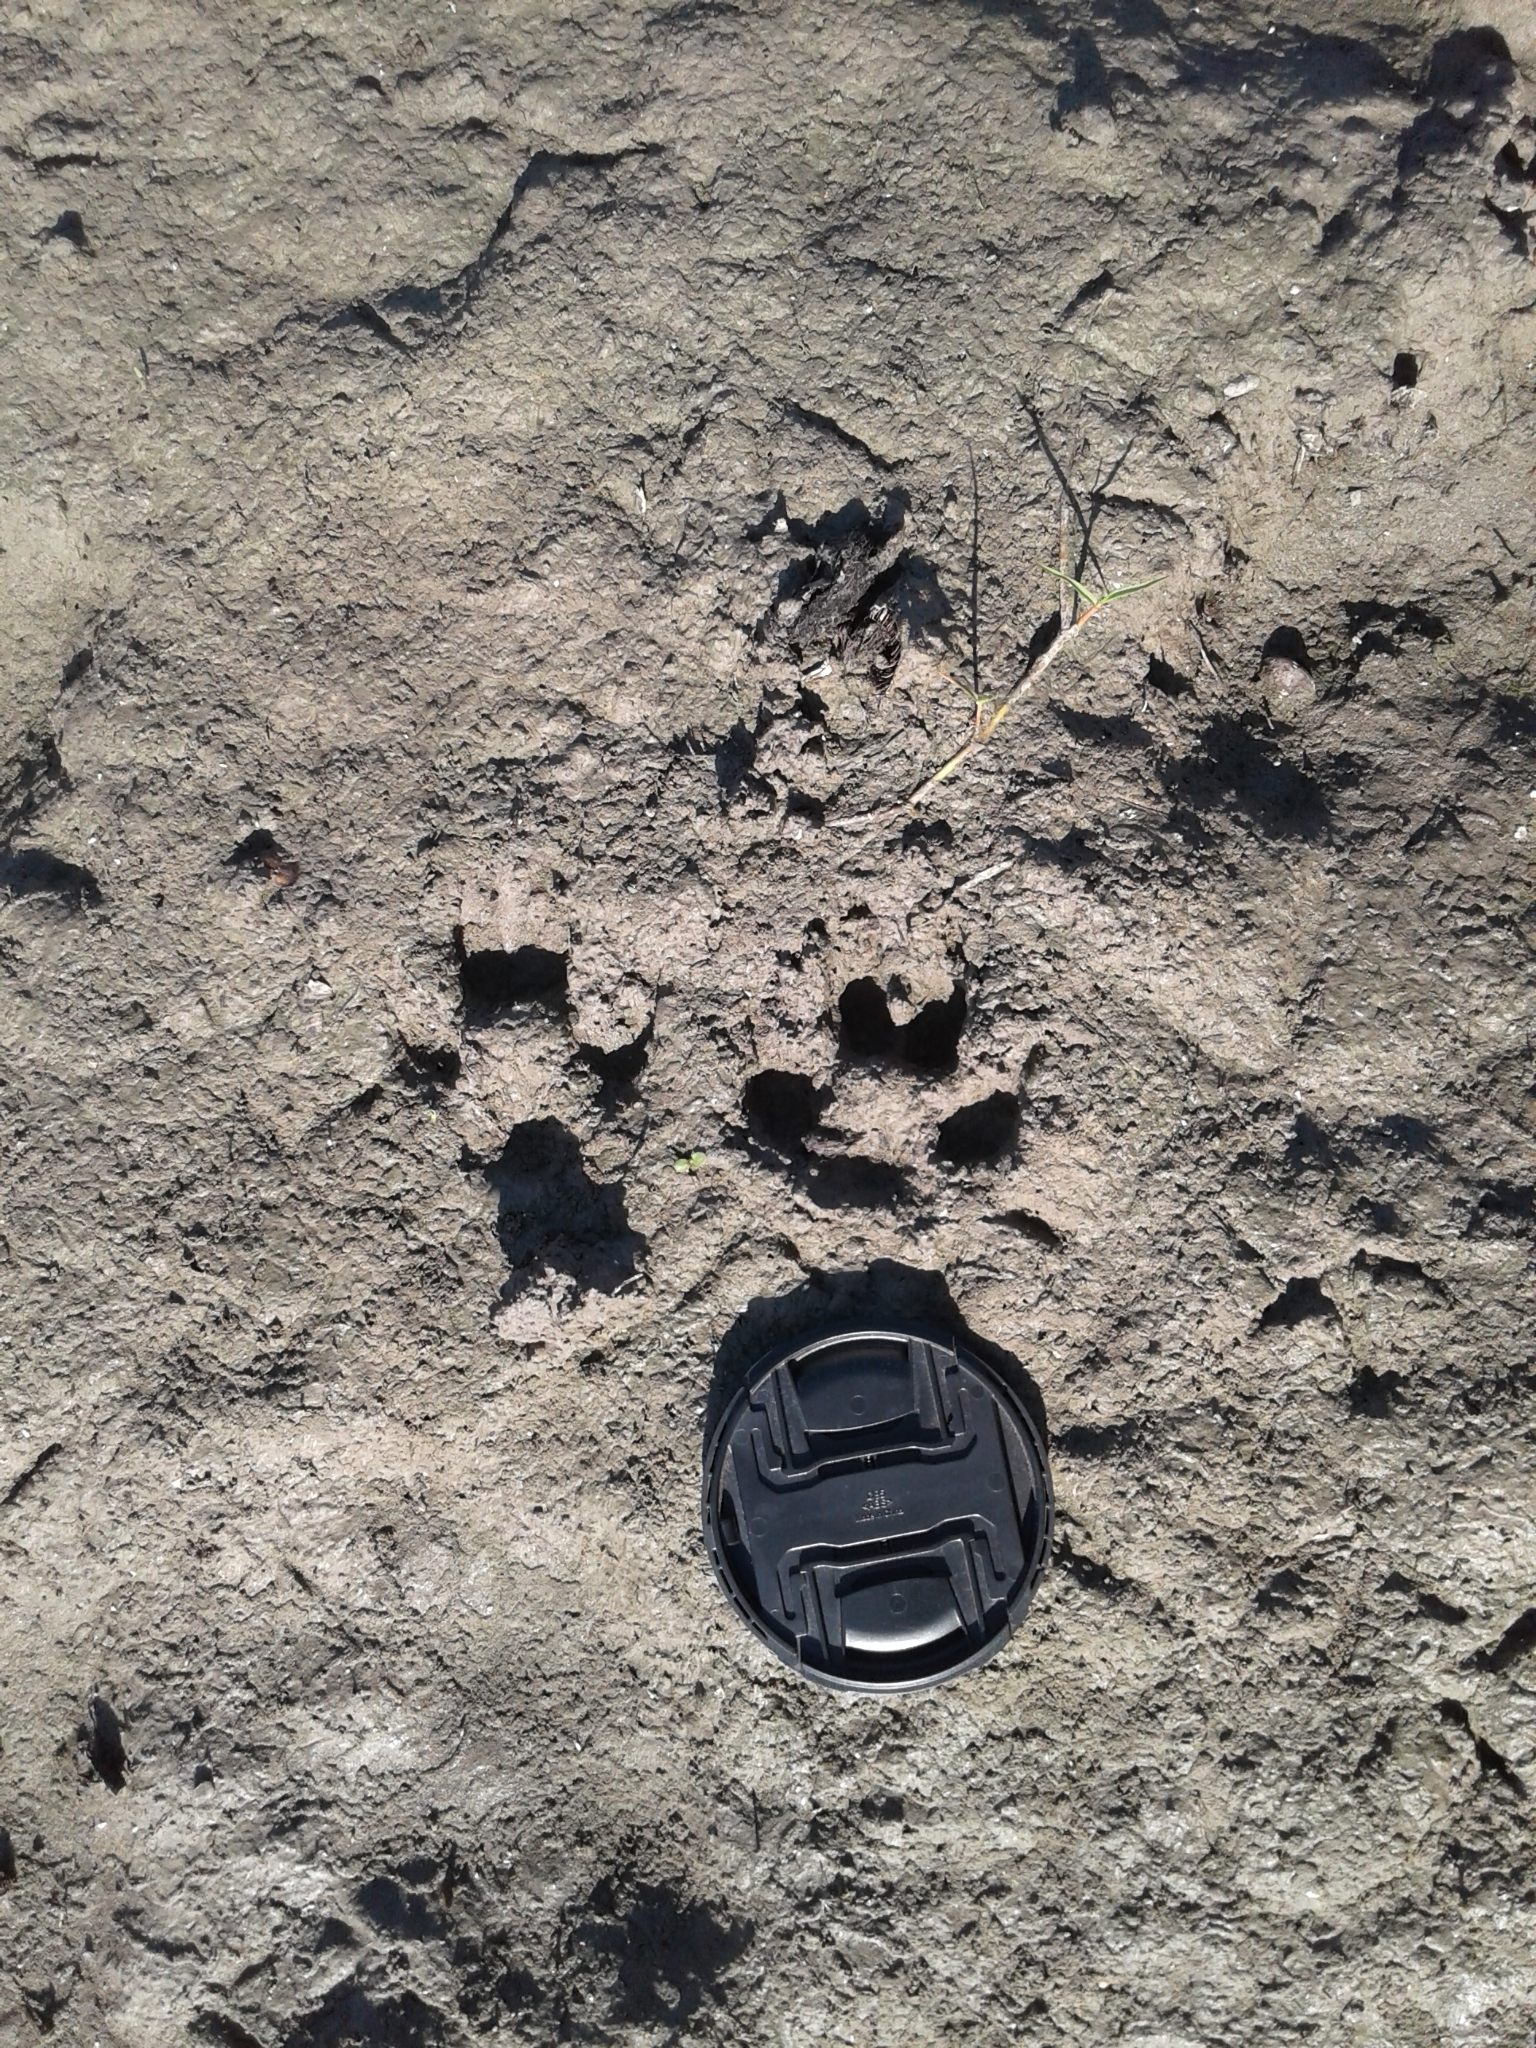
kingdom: Animalia
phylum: Chordata
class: Mammalia
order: Carnivora
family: Canidae
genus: Chrysocyon
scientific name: Chrysocyon brachyurus
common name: Maned wolf
